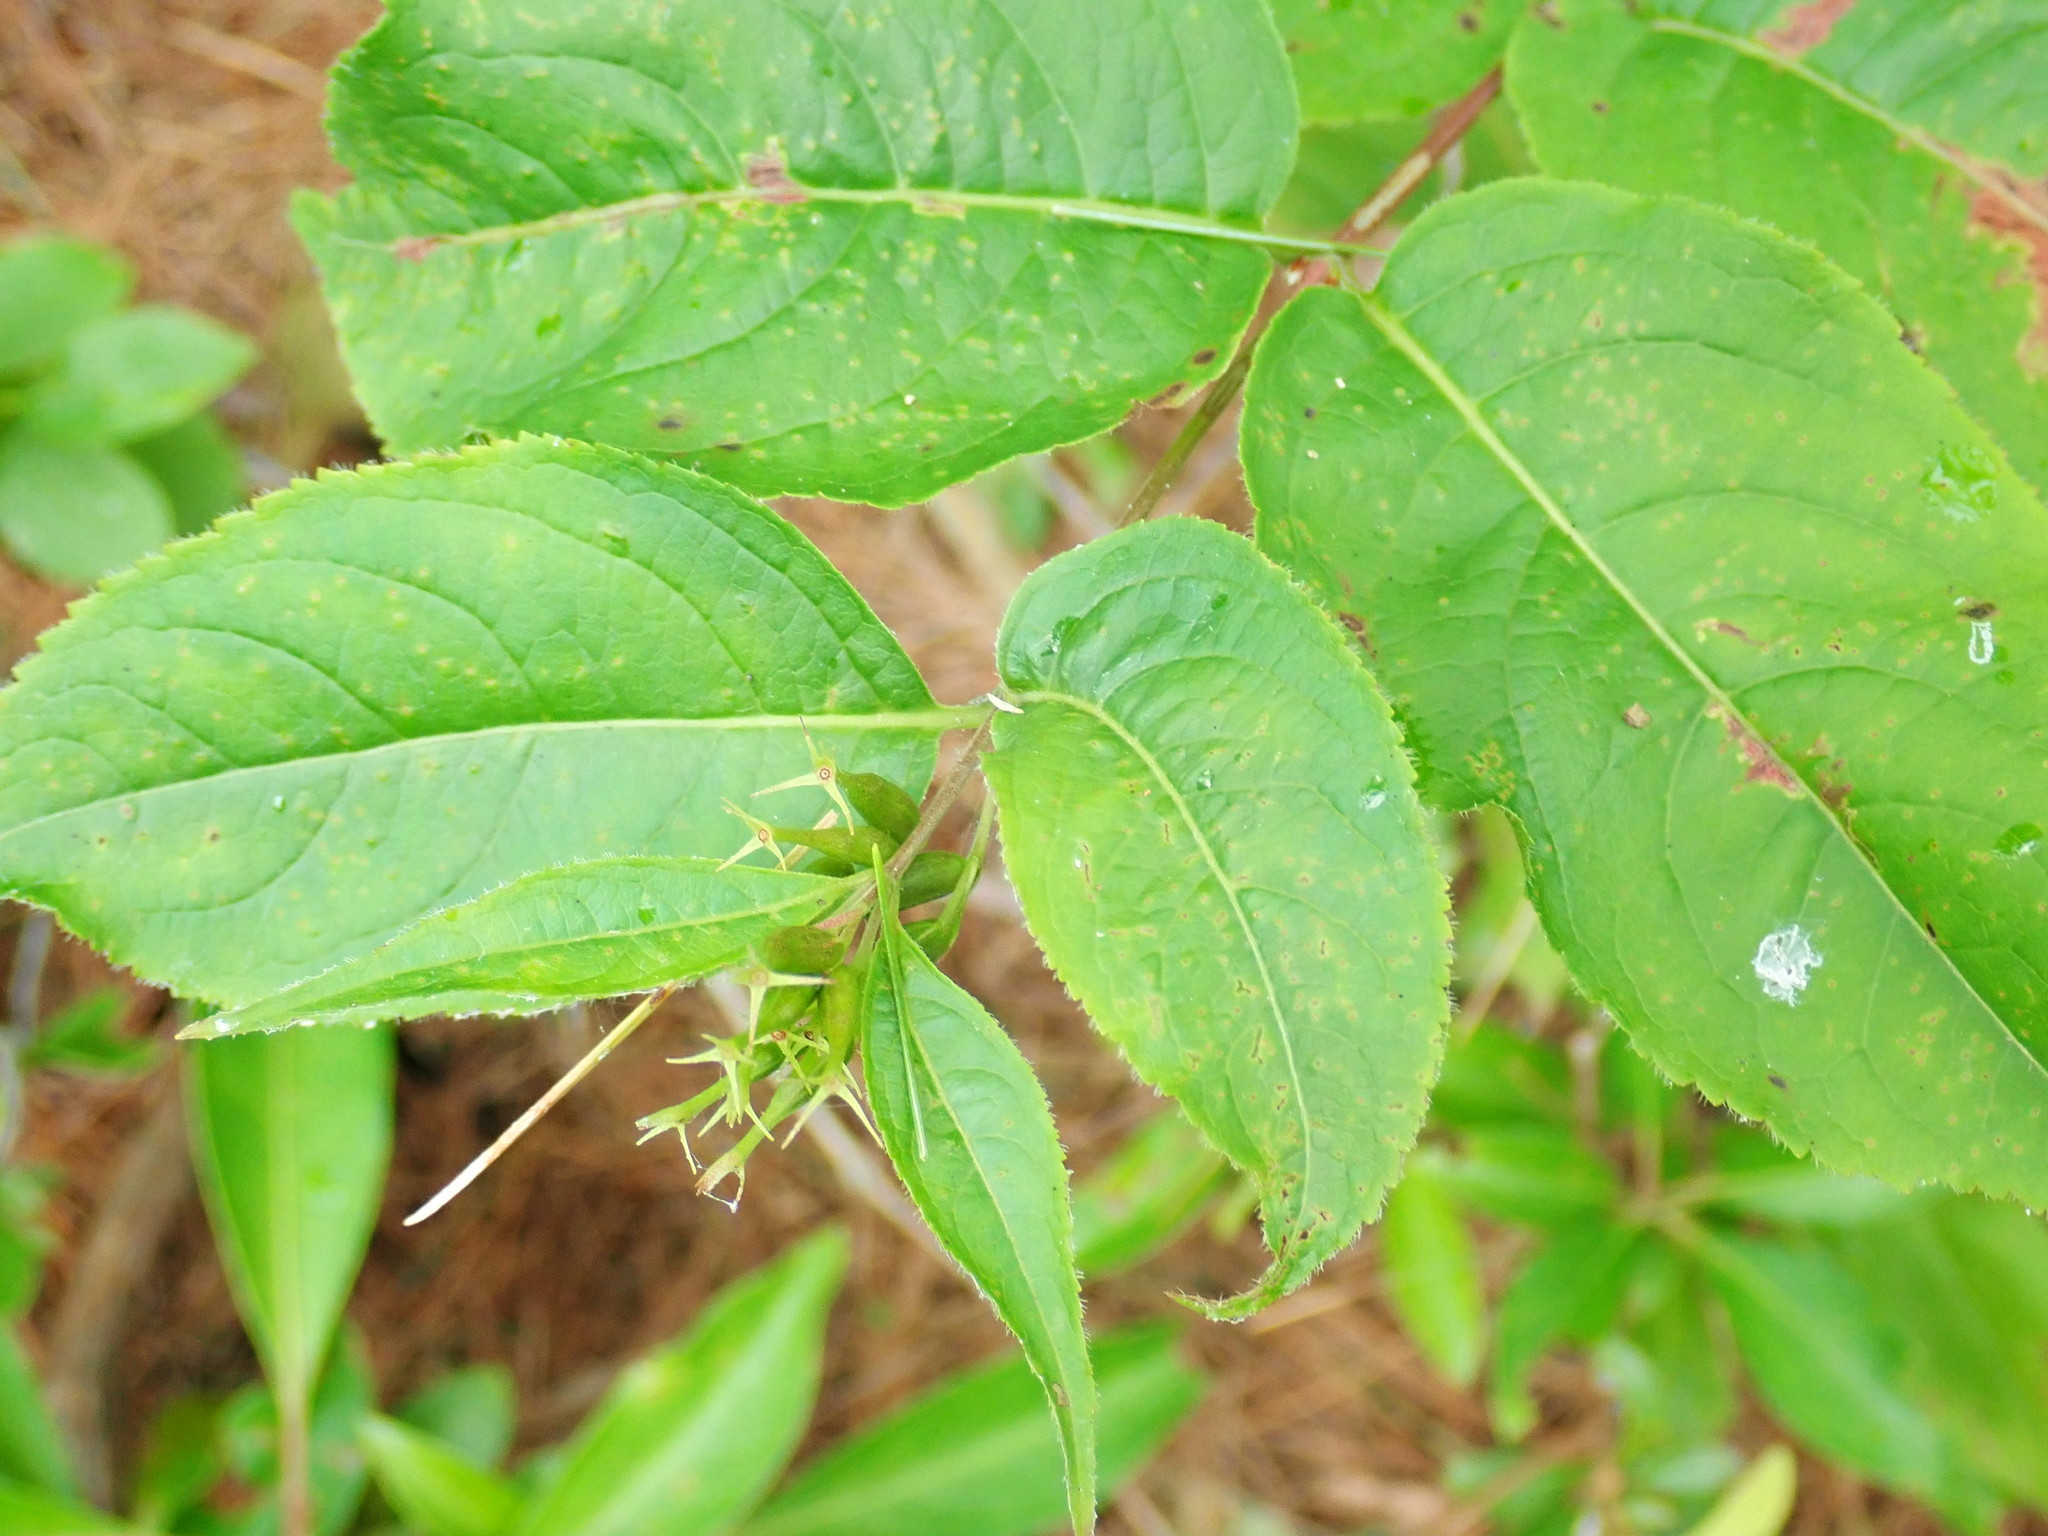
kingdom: Plantae
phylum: Tracheophyta
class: Magnoliopsida
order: Dipsacales
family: Caprifoliaceae
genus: Diervilla
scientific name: Diervilla lonicera
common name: Bush-honeysuckle
